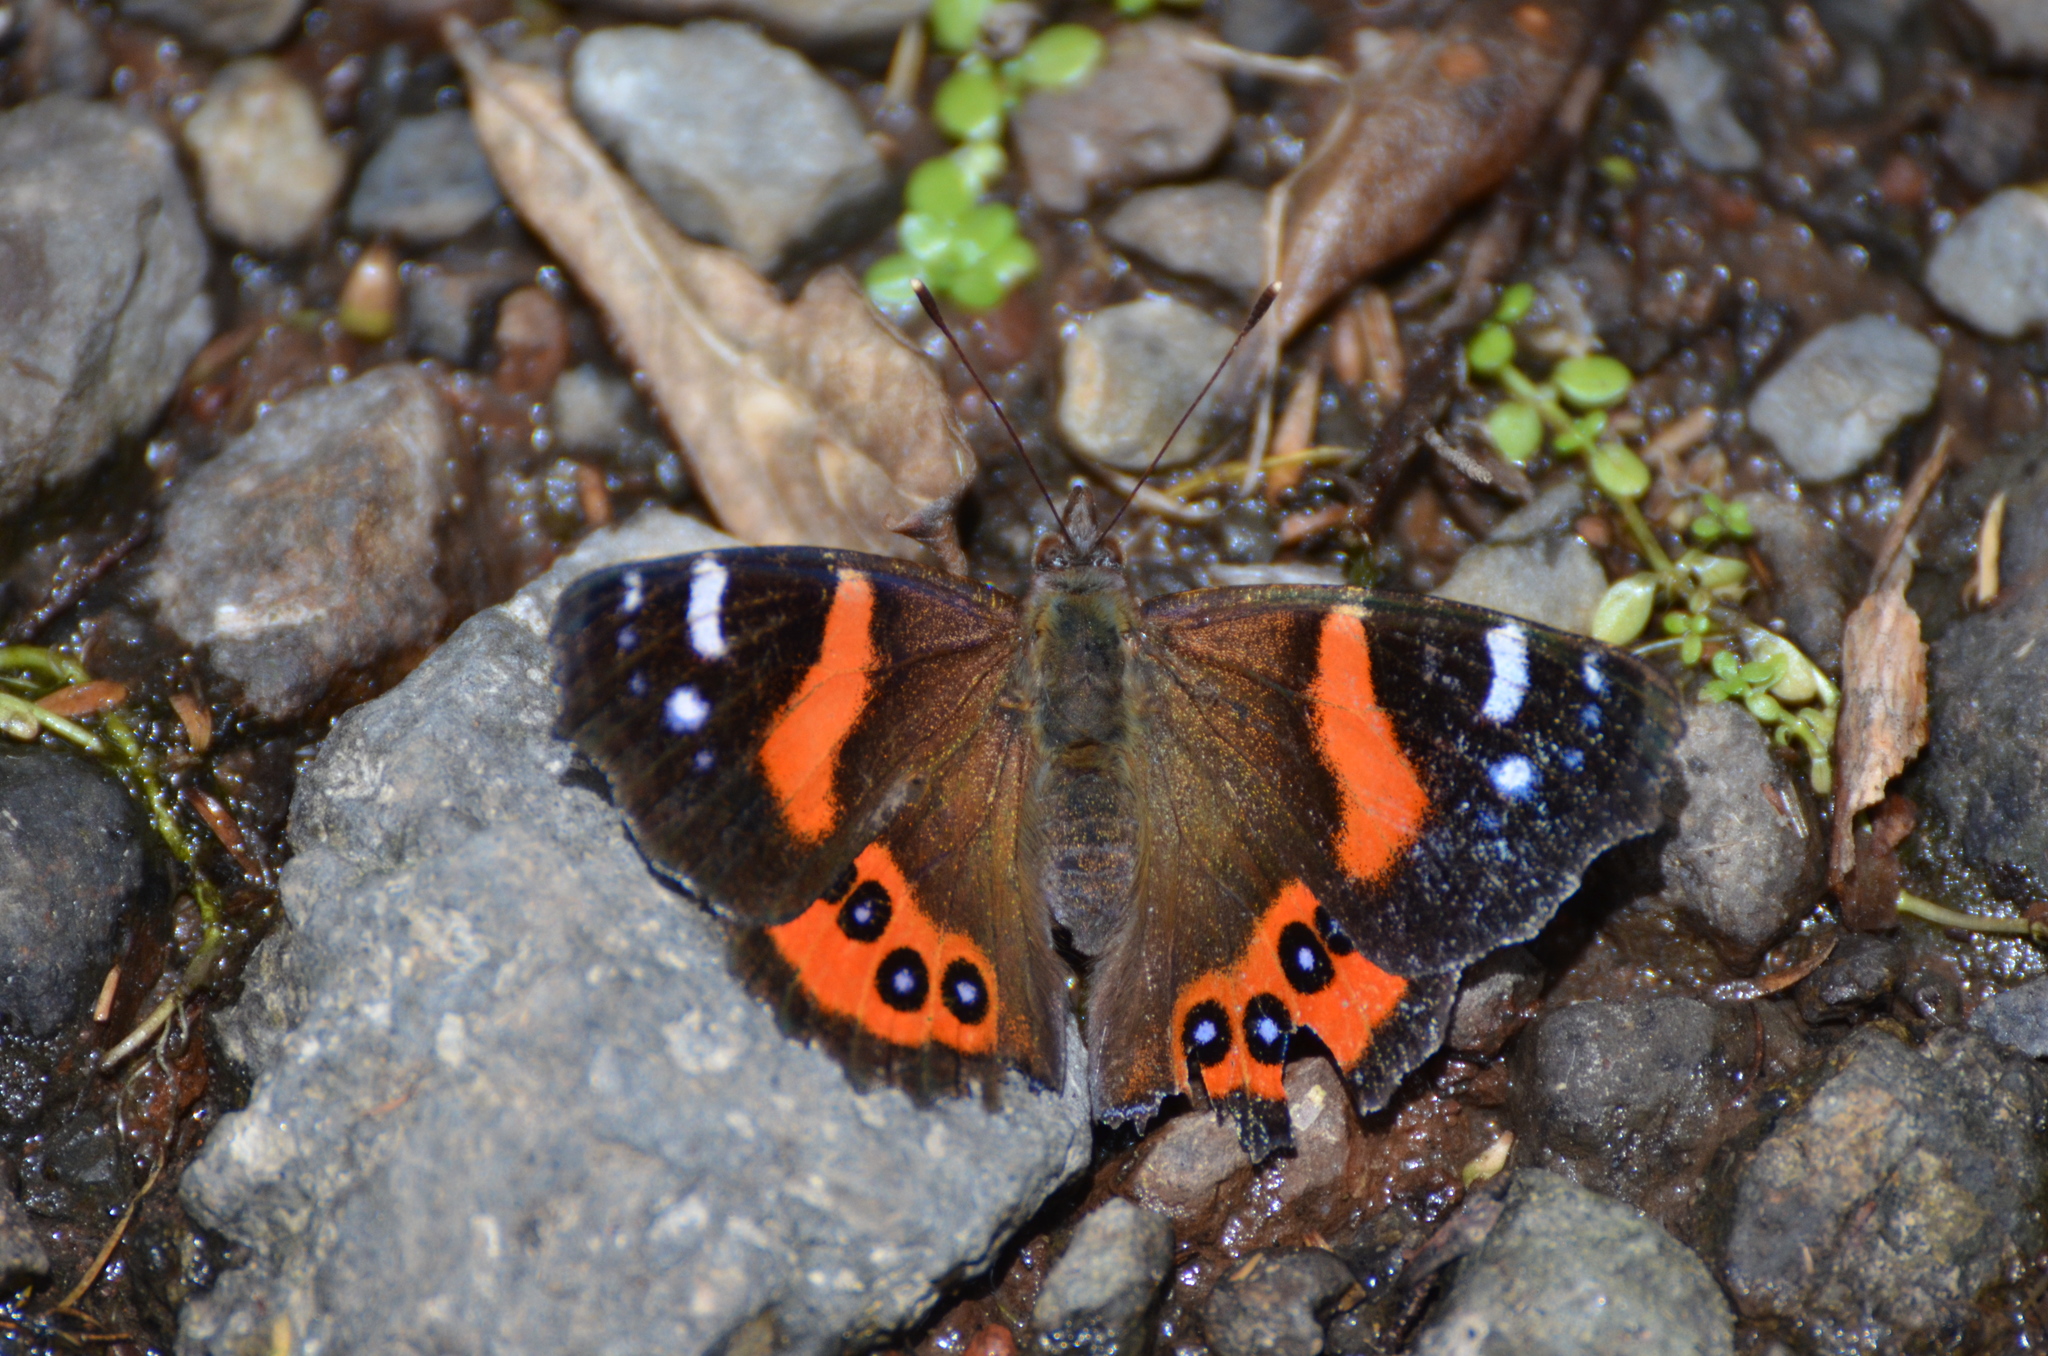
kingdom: Animalia
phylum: Arthropoda
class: Insecta
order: Lepidoptera
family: Nymphalidae
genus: Vanessa
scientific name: Vanessa gonerilla
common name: New zealand red admiral
